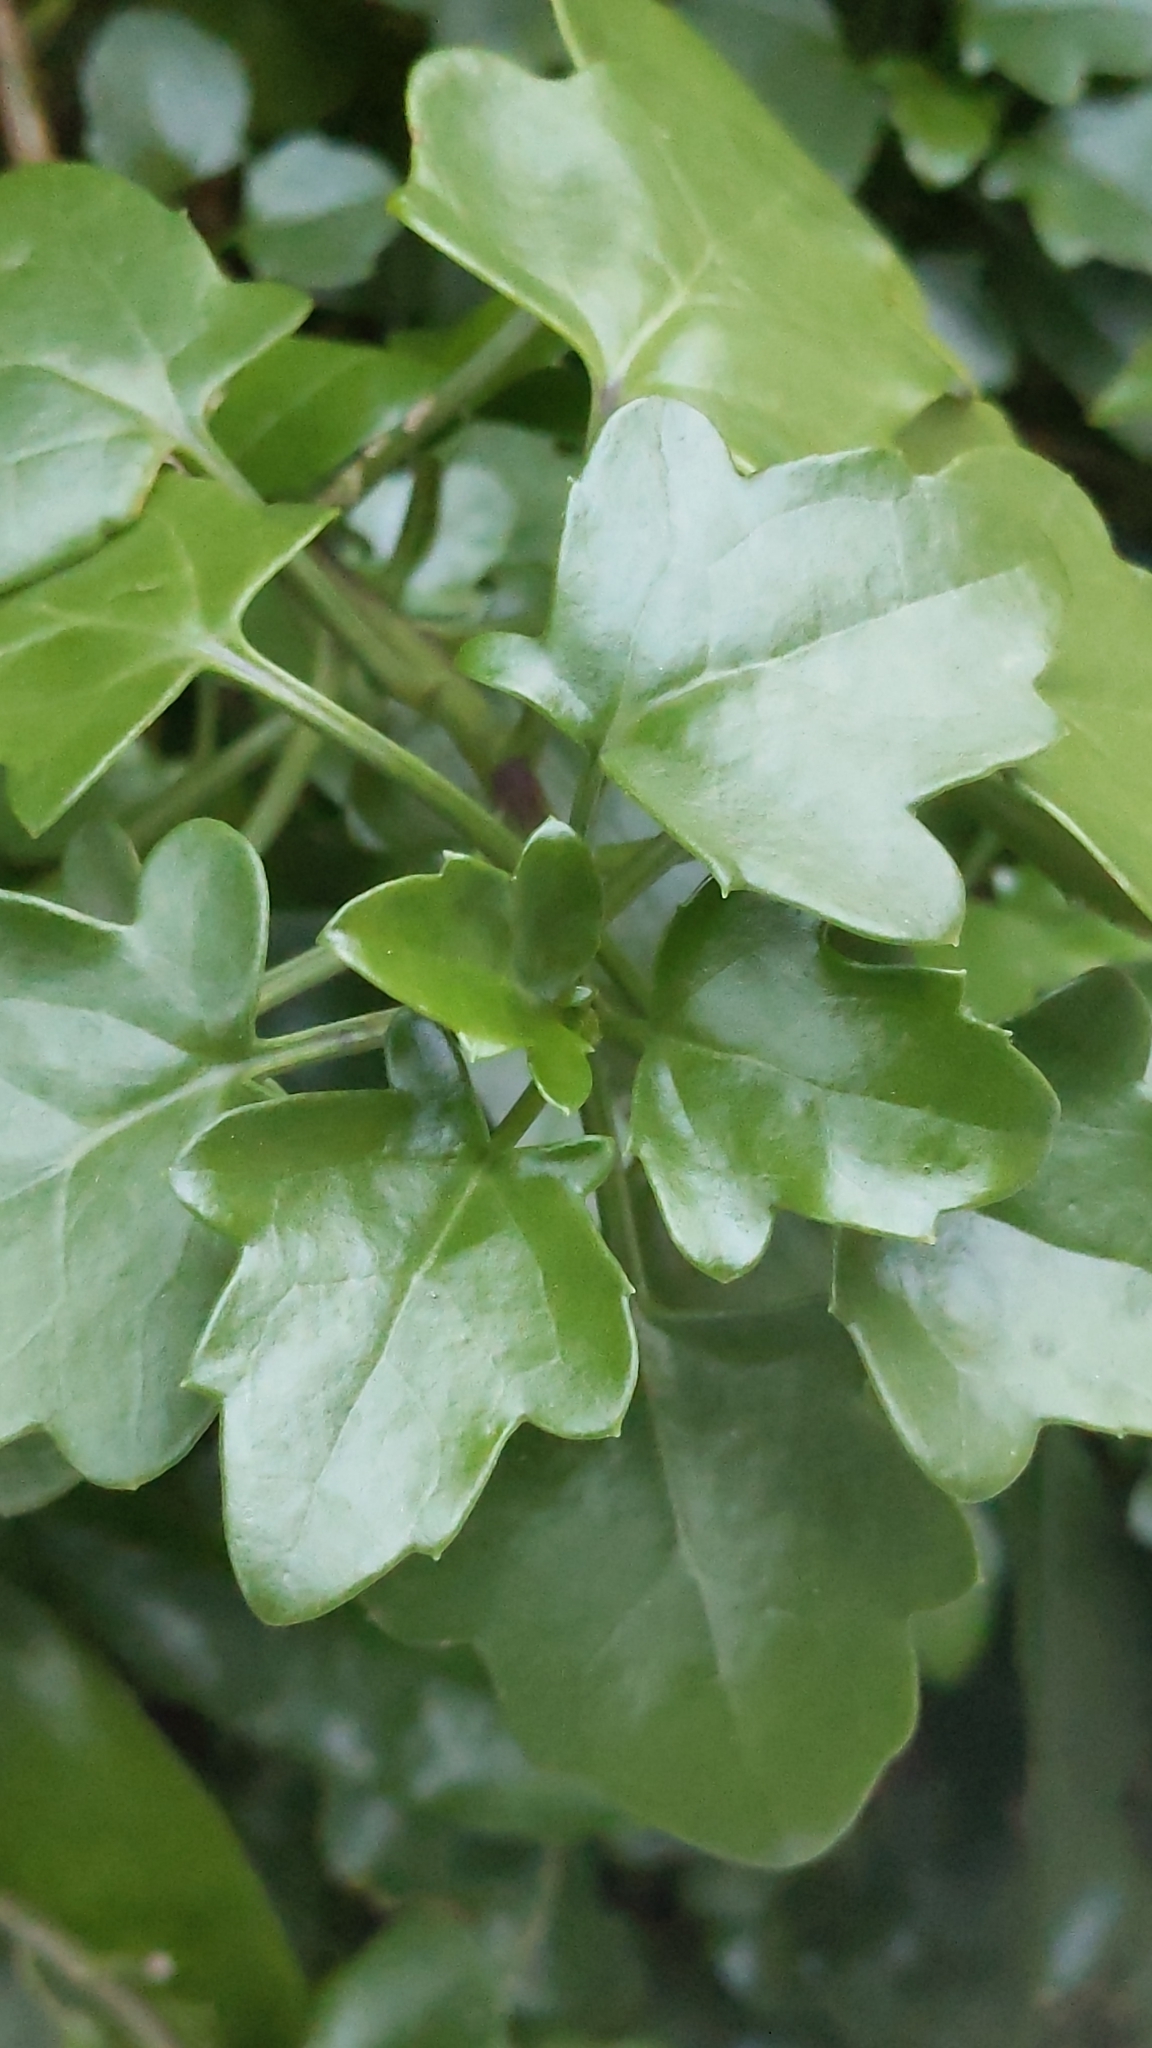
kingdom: Plantae
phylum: Tracheophyta
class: Magnoliopsida
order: Asterales
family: Asteraceae
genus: Senecio
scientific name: Senecio angulatus
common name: Climbing groundsel
